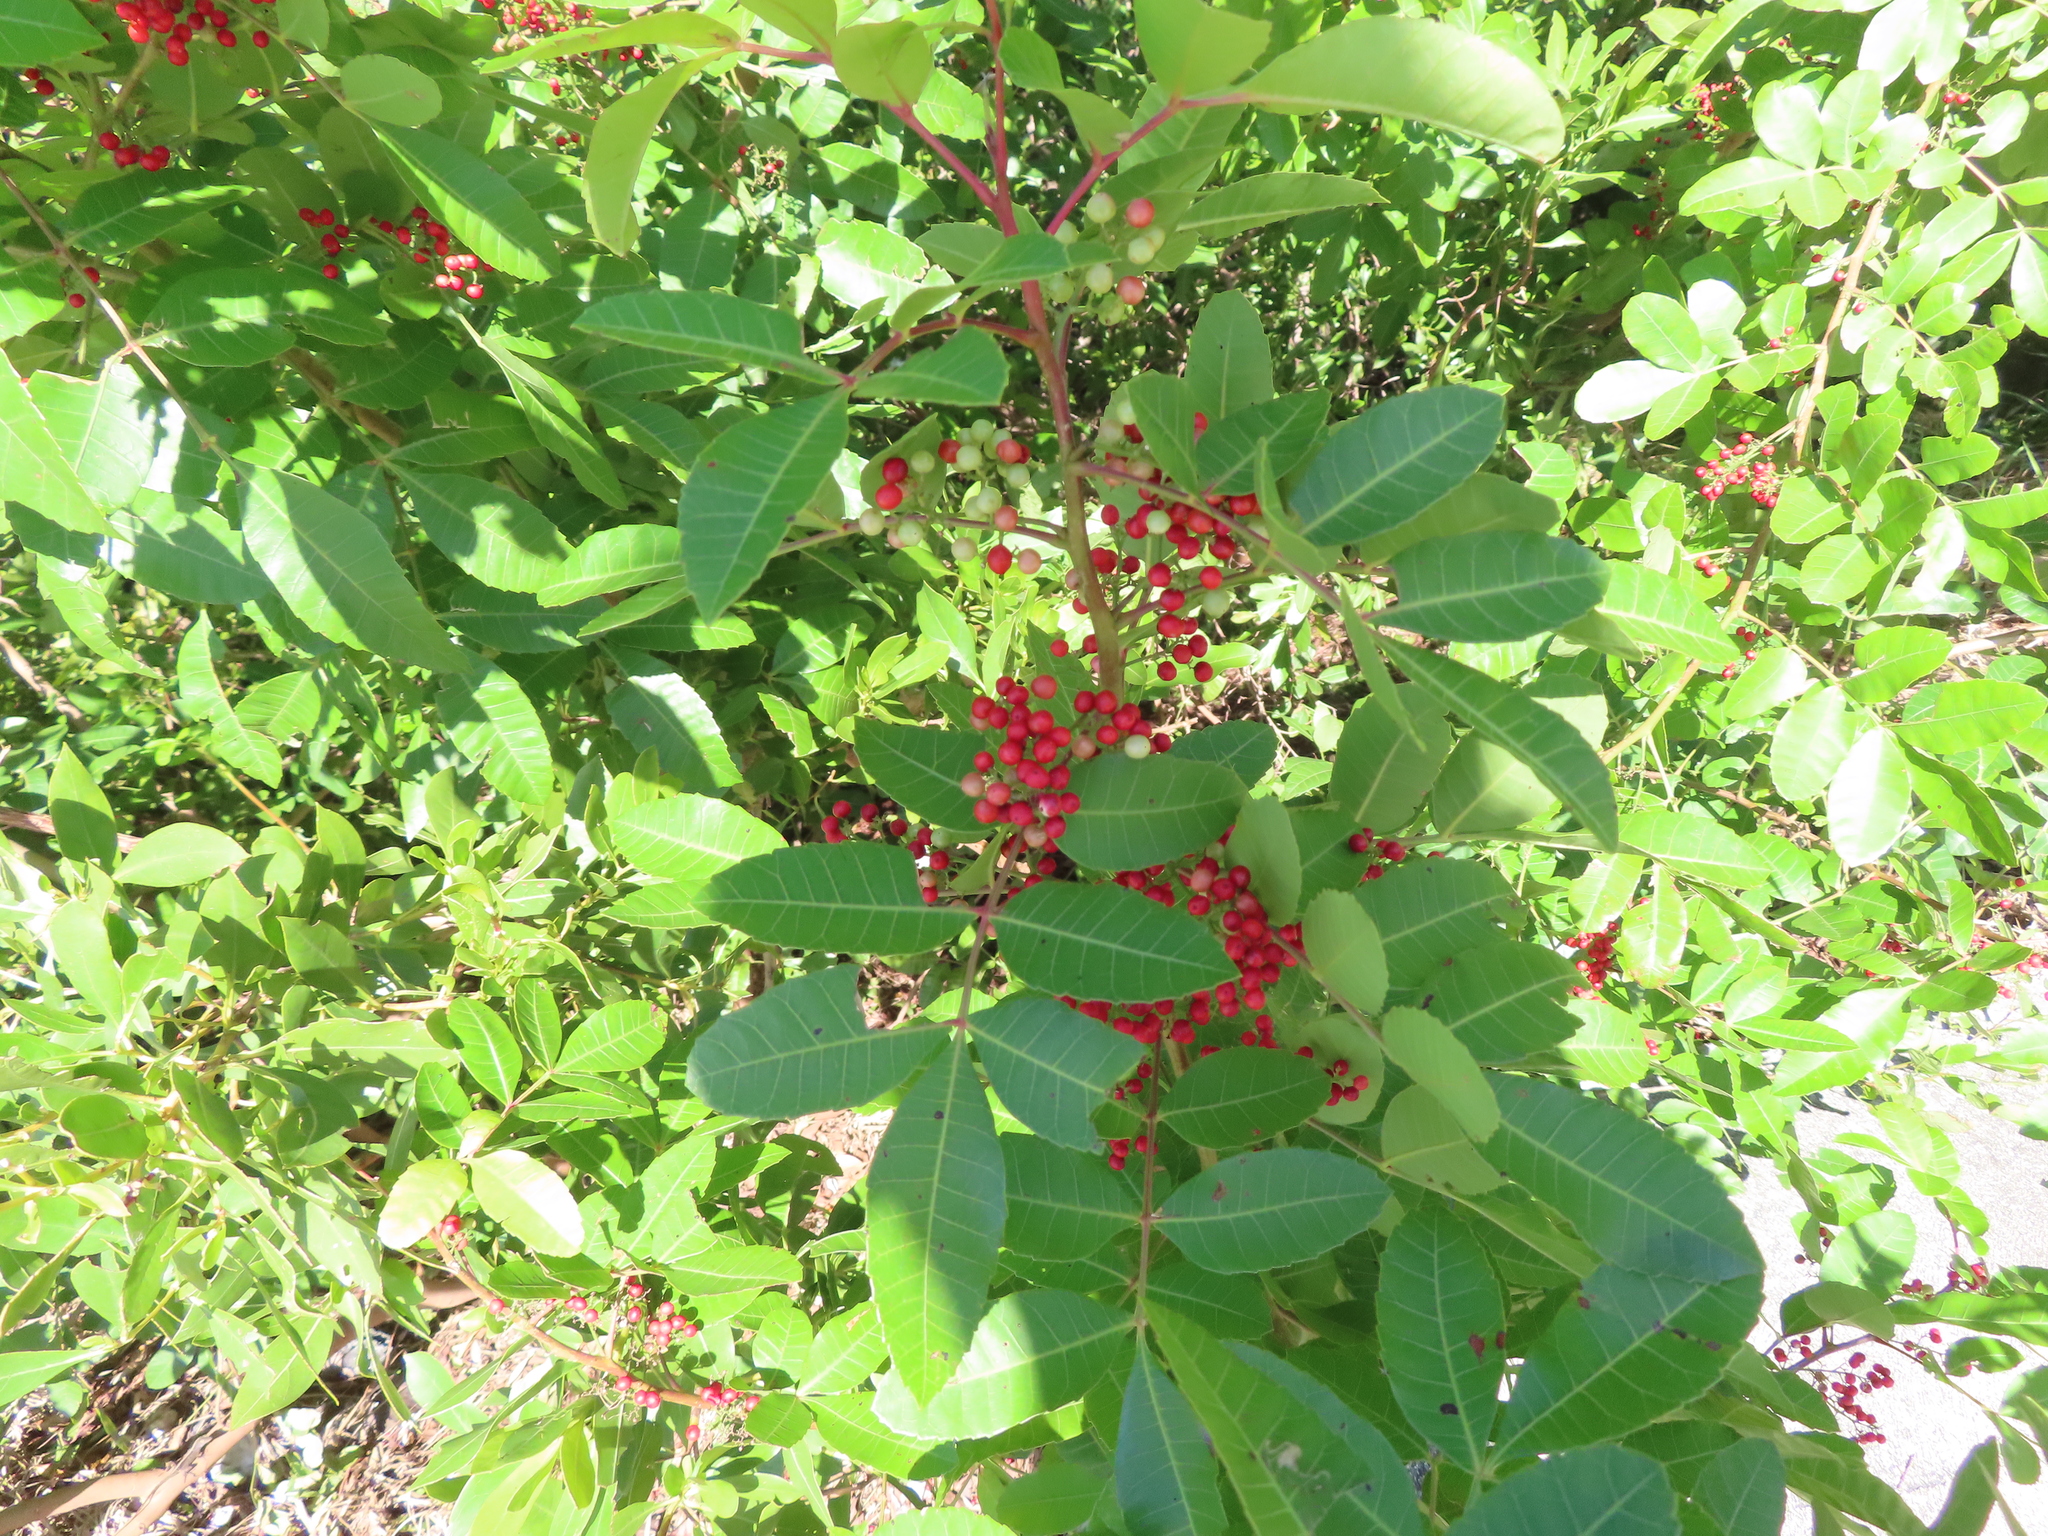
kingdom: Plantae
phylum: Tracheophyta
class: Magnoliopsida
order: Sapindales
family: Anacardiaceae
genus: Schinus
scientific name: Schinus terebinthifolia
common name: Brazilian peppertree
